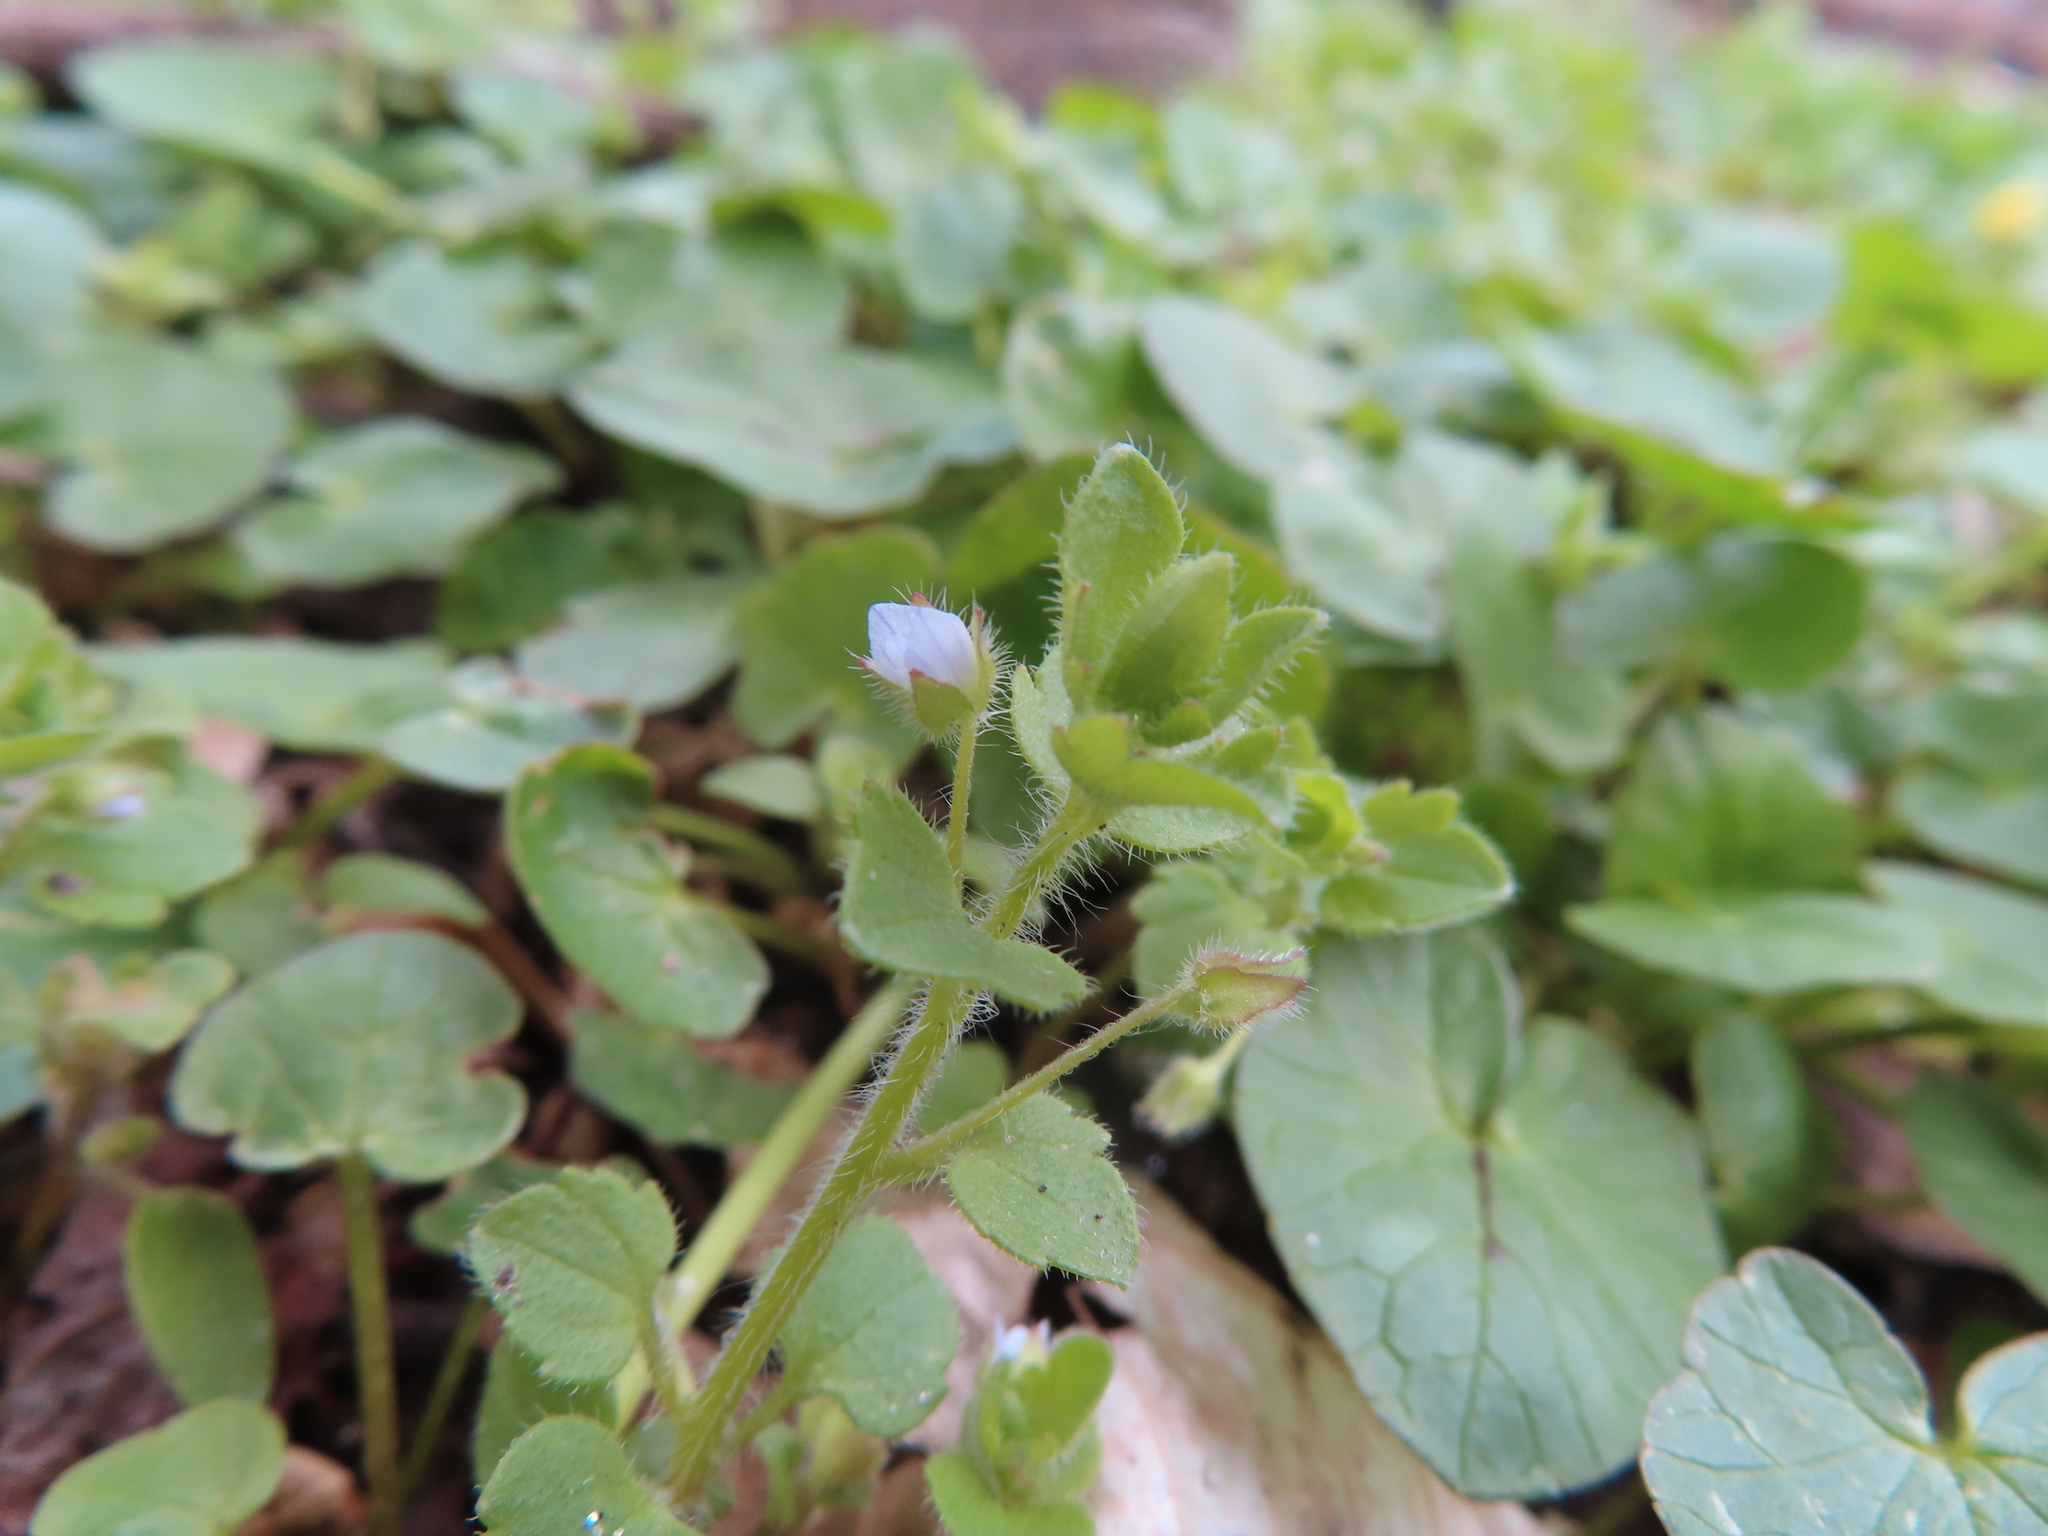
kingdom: Plantae
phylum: Tracheophyta
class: Magnoliopsida
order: Lamiales
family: Plantaginaceae
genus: Veronica
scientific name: Veronica sublobata
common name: False ivy-leaved speedwell
